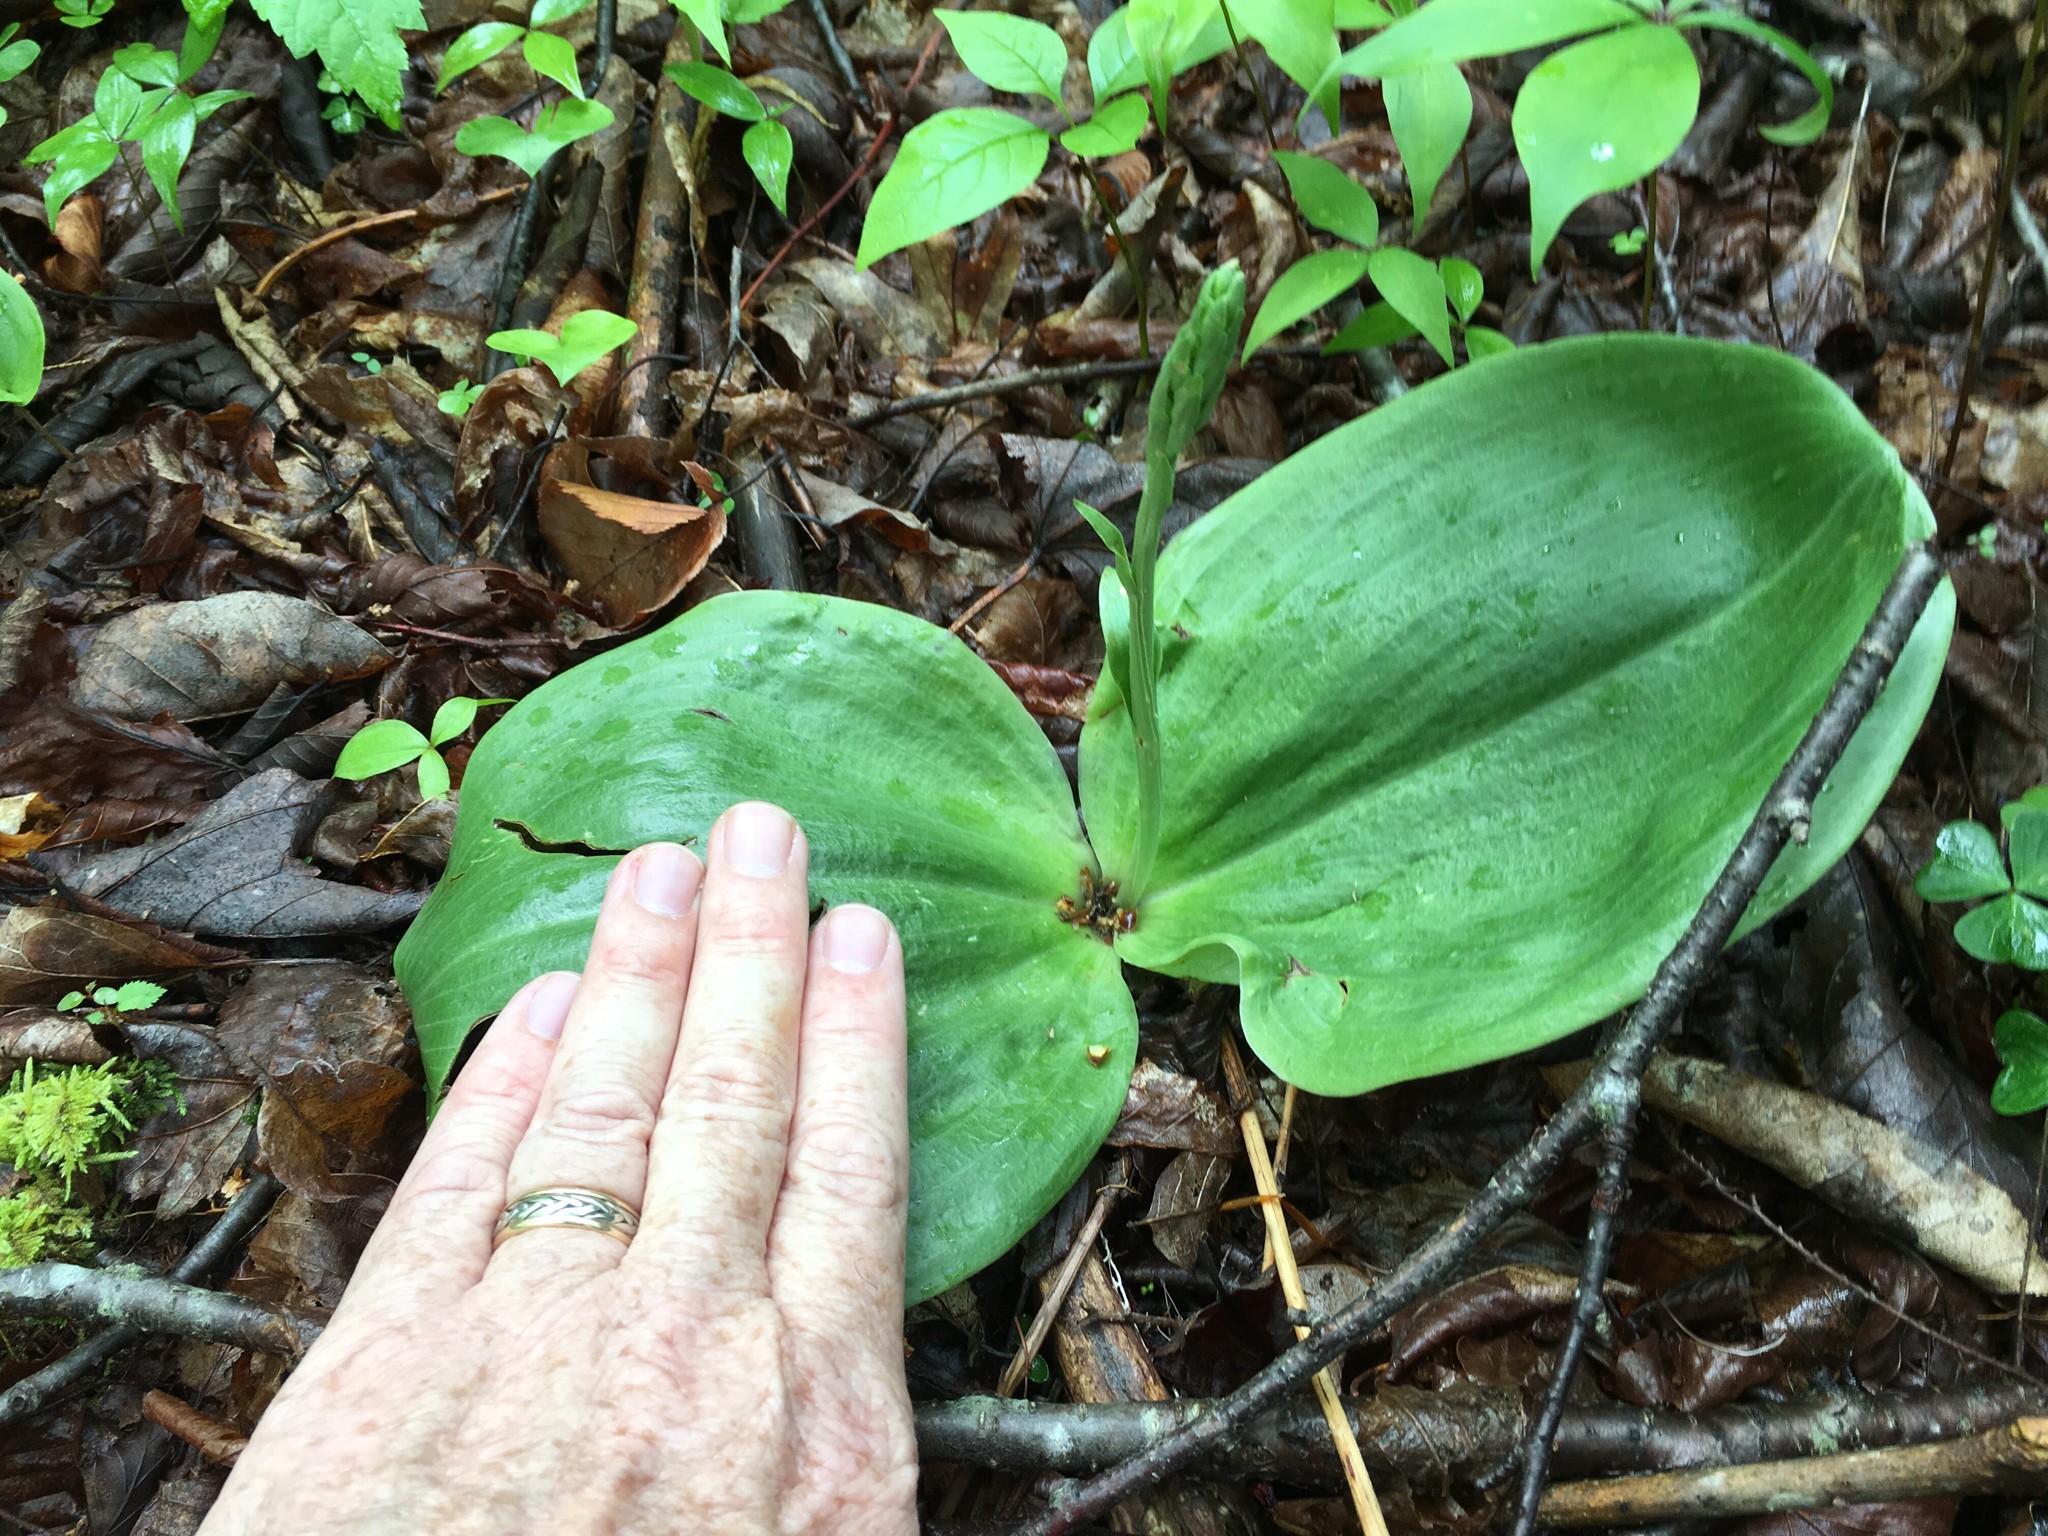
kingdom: Plantae
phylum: Tracheophyta
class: Liliopsida
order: Asparagales
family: Orchidaceae
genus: Platanthera
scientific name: Platanthera orbiculata
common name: Large round-leaved orchid
